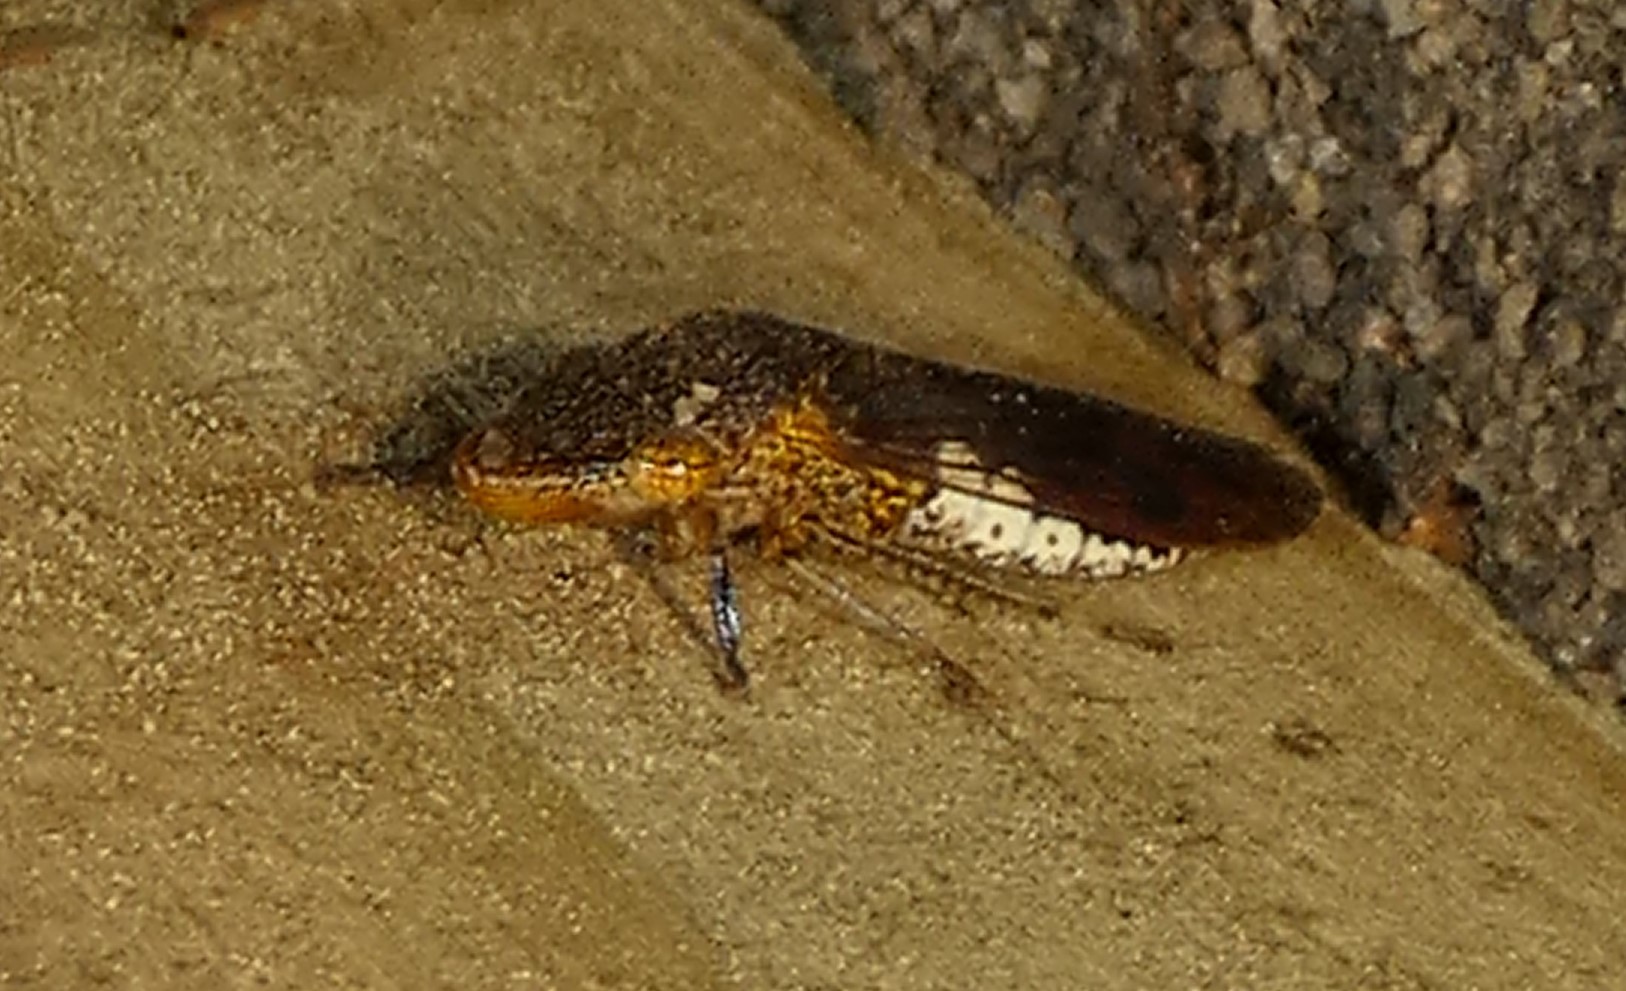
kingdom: Animalia
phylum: Arthropoda
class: Insecta
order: Hemiptera
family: Cicadellidae
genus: Homalodisca
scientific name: Homalodisca vitripennis
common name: Glassy-winged sharpshooter
